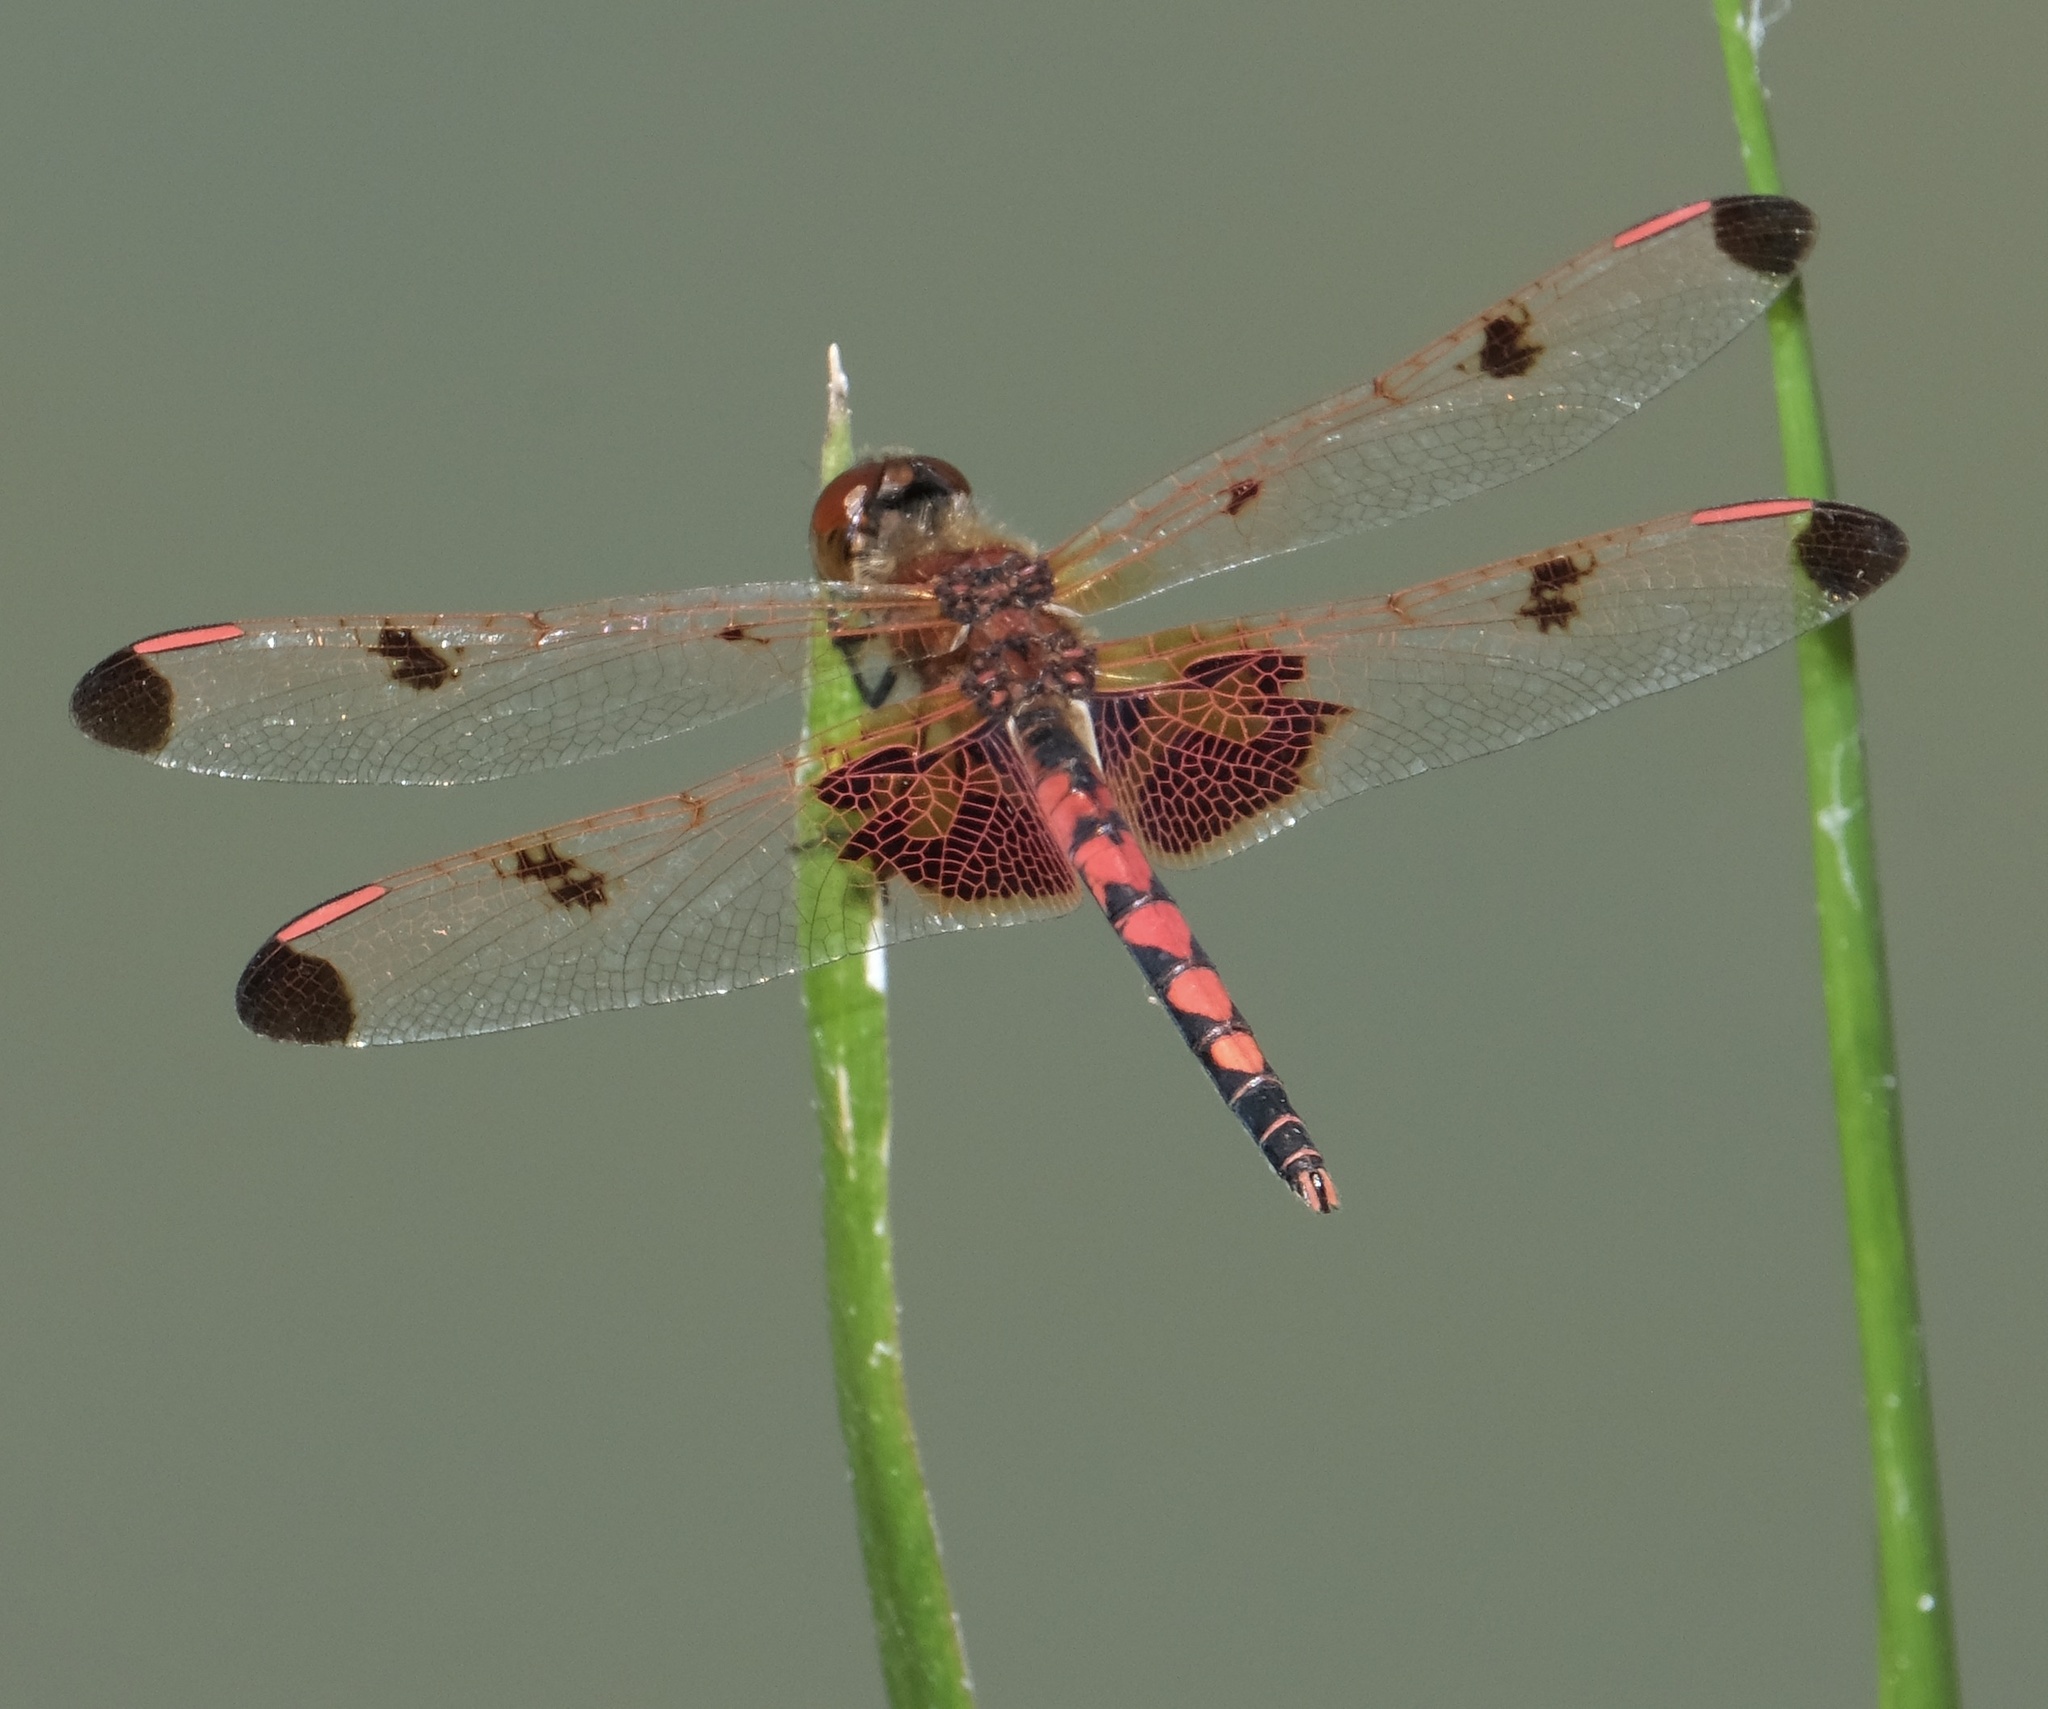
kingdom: Animalia
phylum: Arthropoda
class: Insecta
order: Odonata
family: Libellulidae
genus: Celithemis
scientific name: Celithemis elisa
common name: Calico pennant
